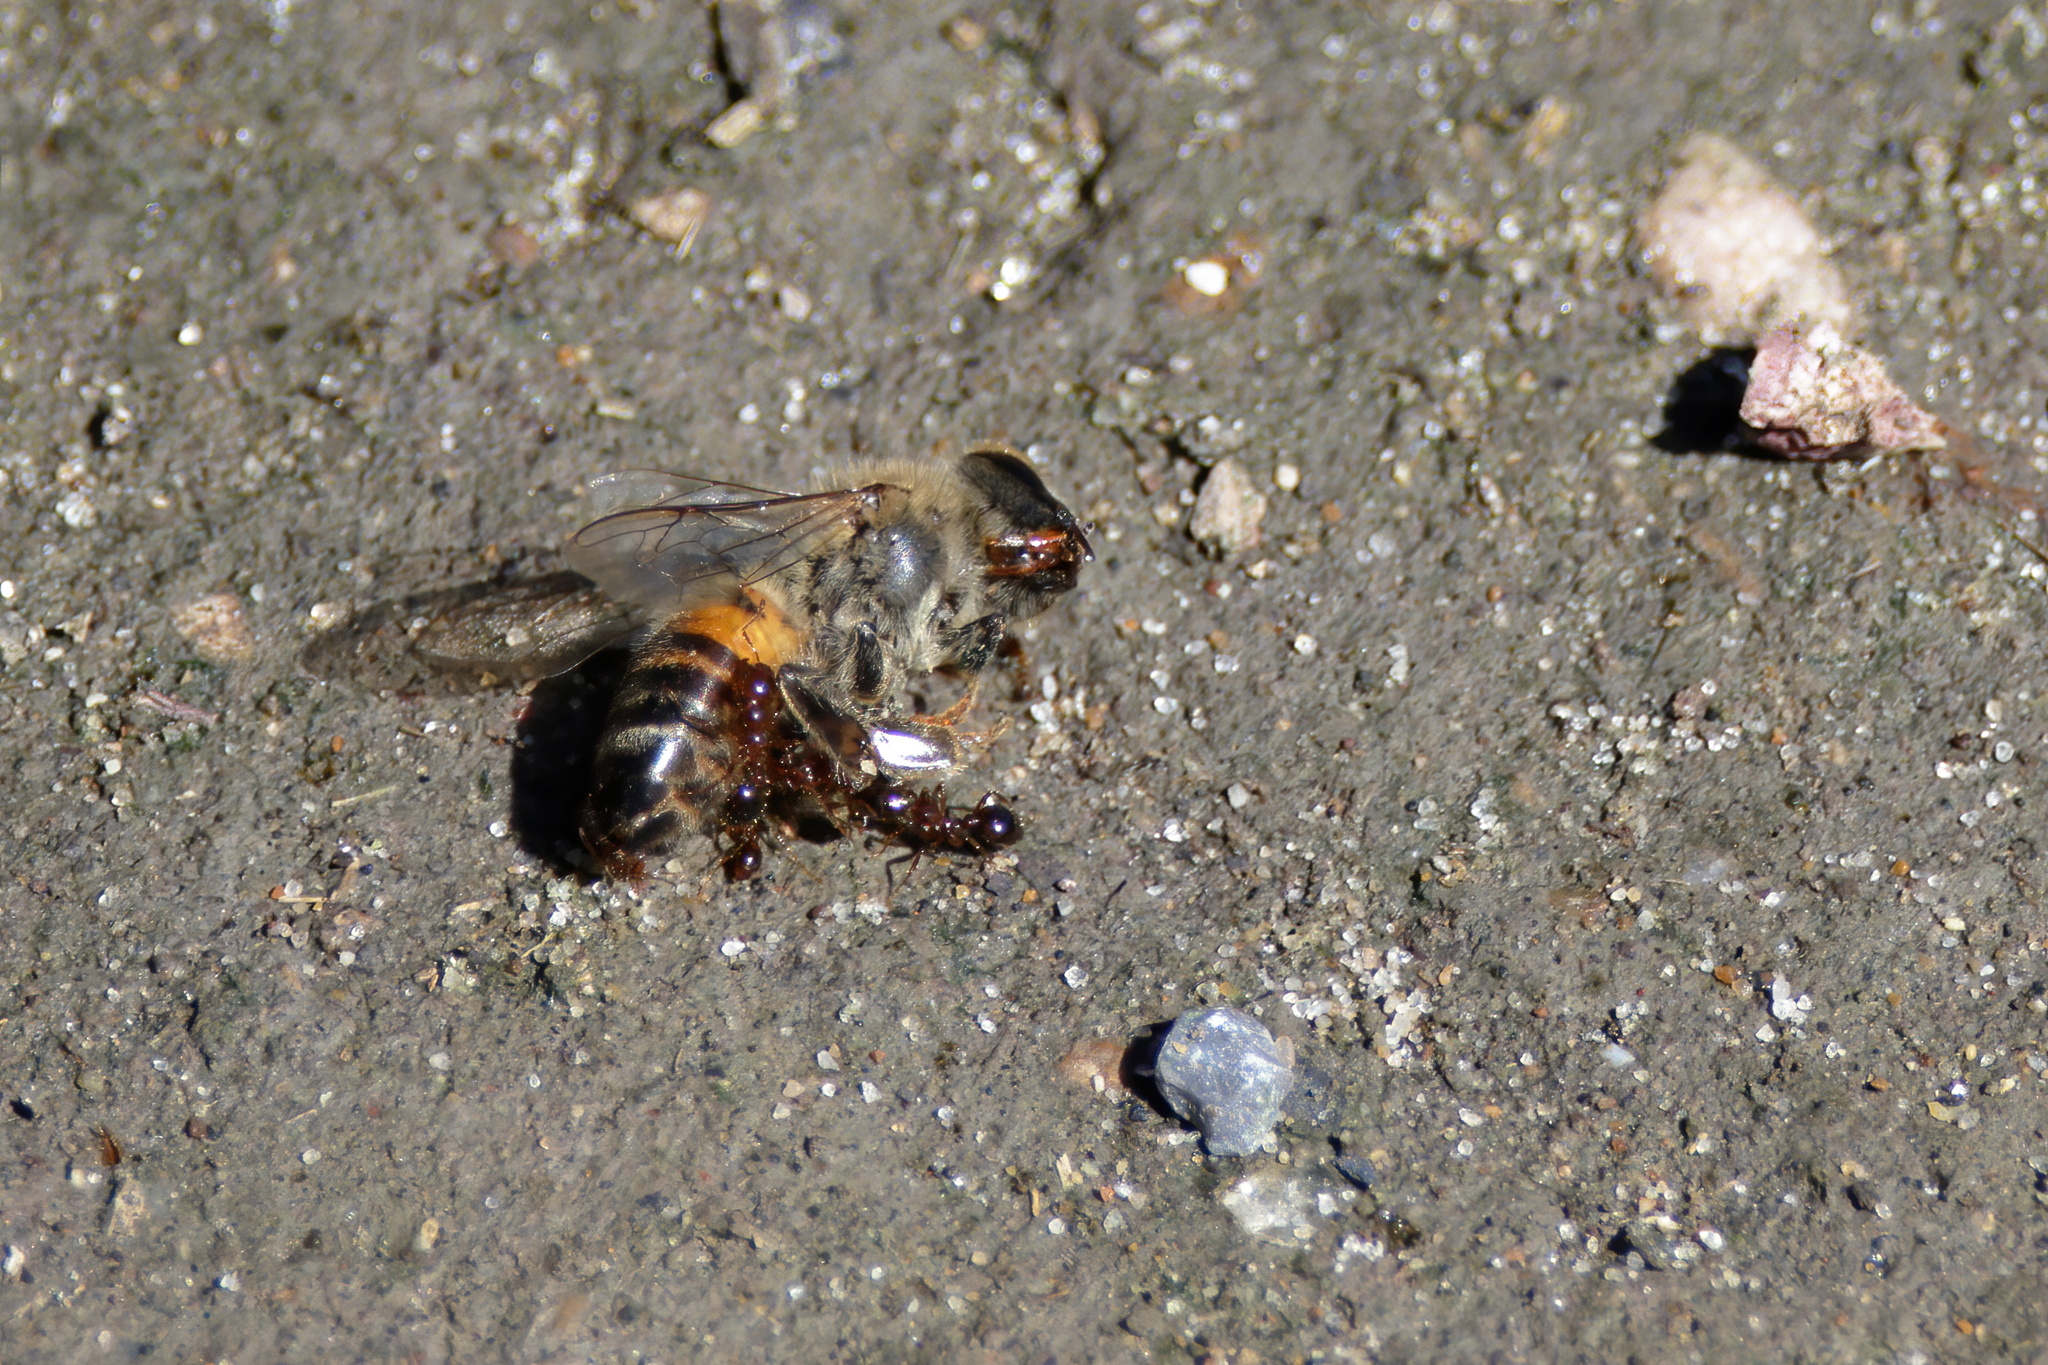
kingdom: Animalia
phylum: Arthropoda
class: Insecta
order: Hymenoptera
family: Apidae
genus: Apis
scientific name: Apis mellifera
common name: Honey bee
